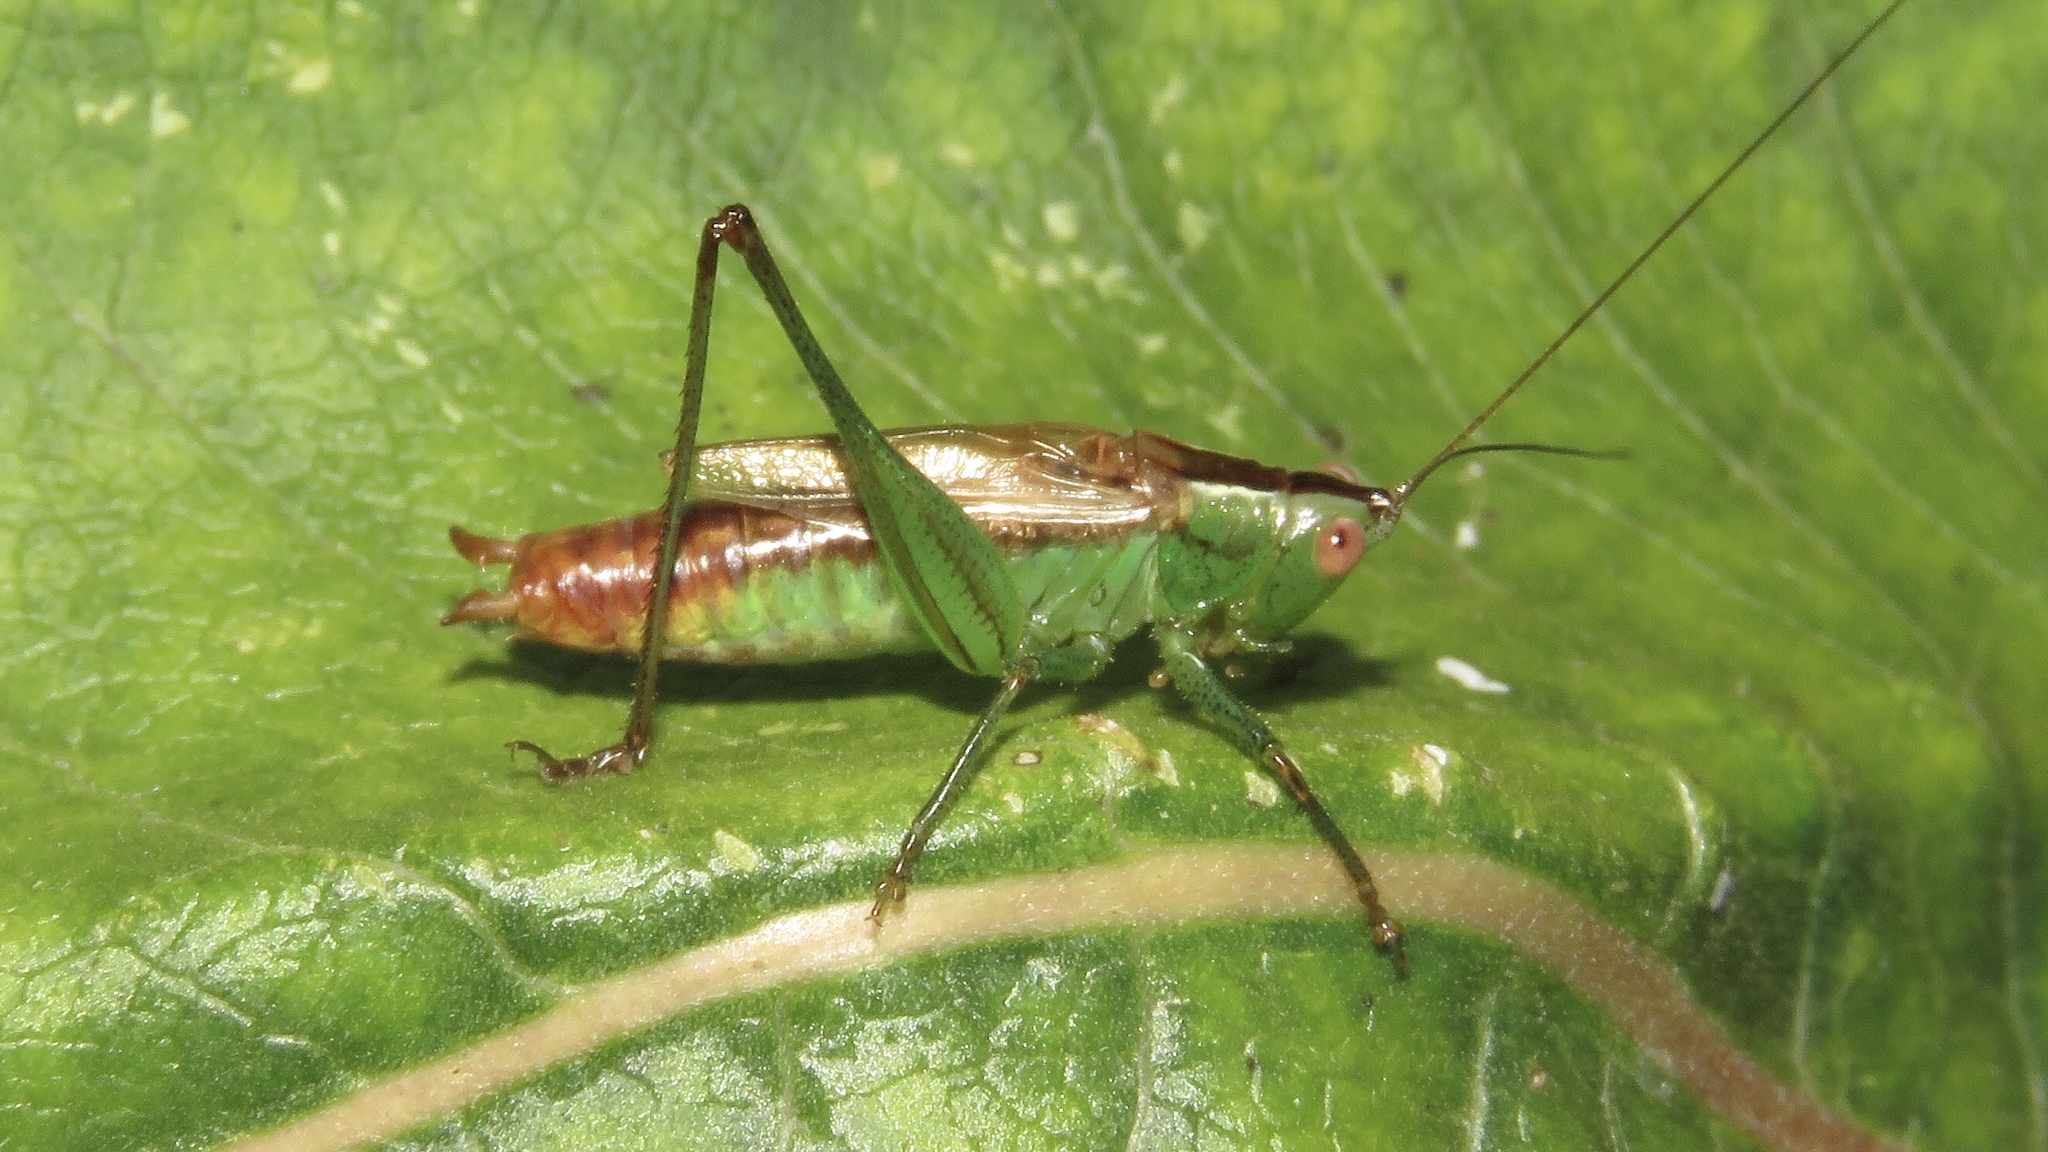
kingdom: Animalia
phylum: Arthropoda
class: Insecta
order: Orthoptera
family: Tettigoniidae
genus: Conocephalus
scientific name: Conocephalus brevipennis
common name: Short-winged meadow katydid
